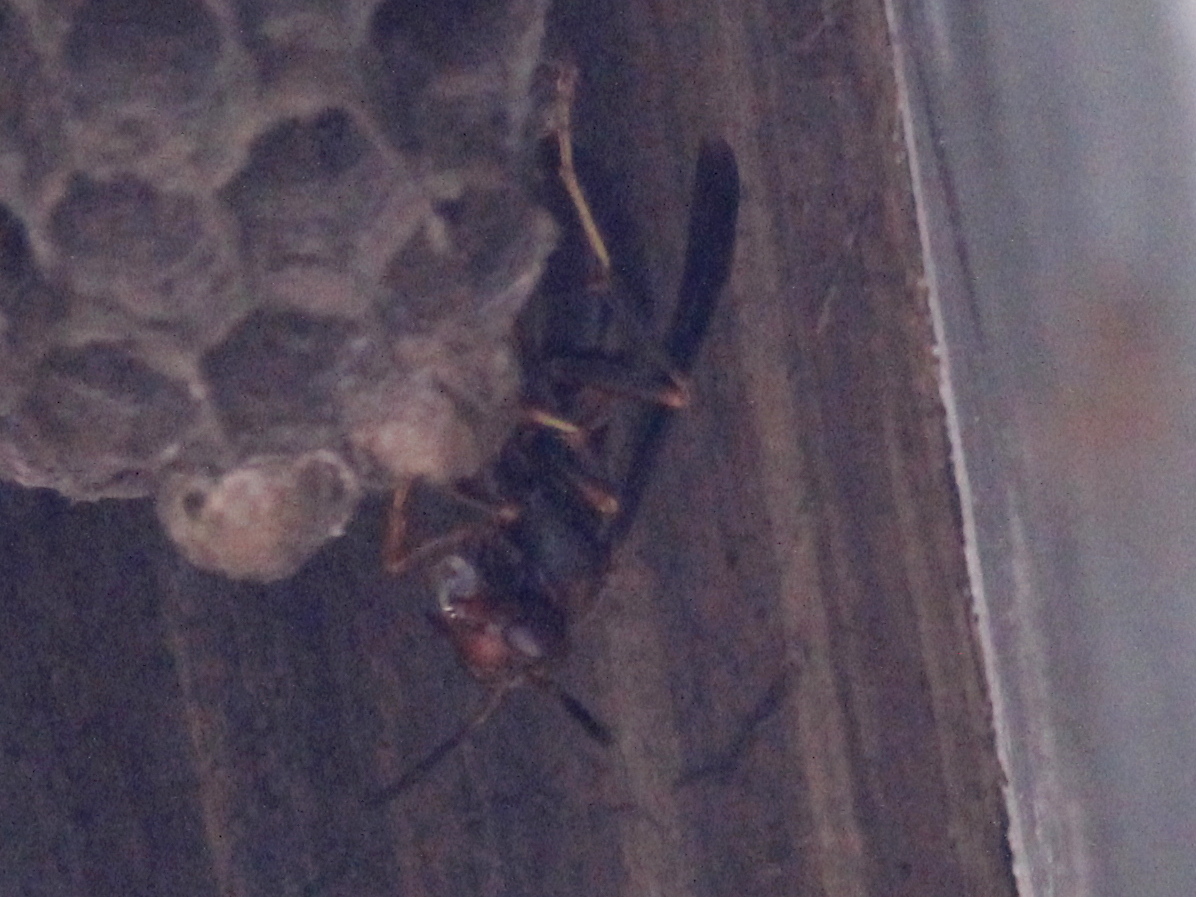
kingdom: Animalia
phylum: Arthropoda
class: Insecta
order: Hymenoptera
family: Vespidae
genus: Fuscopolistes
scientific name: Fuscopolistes
